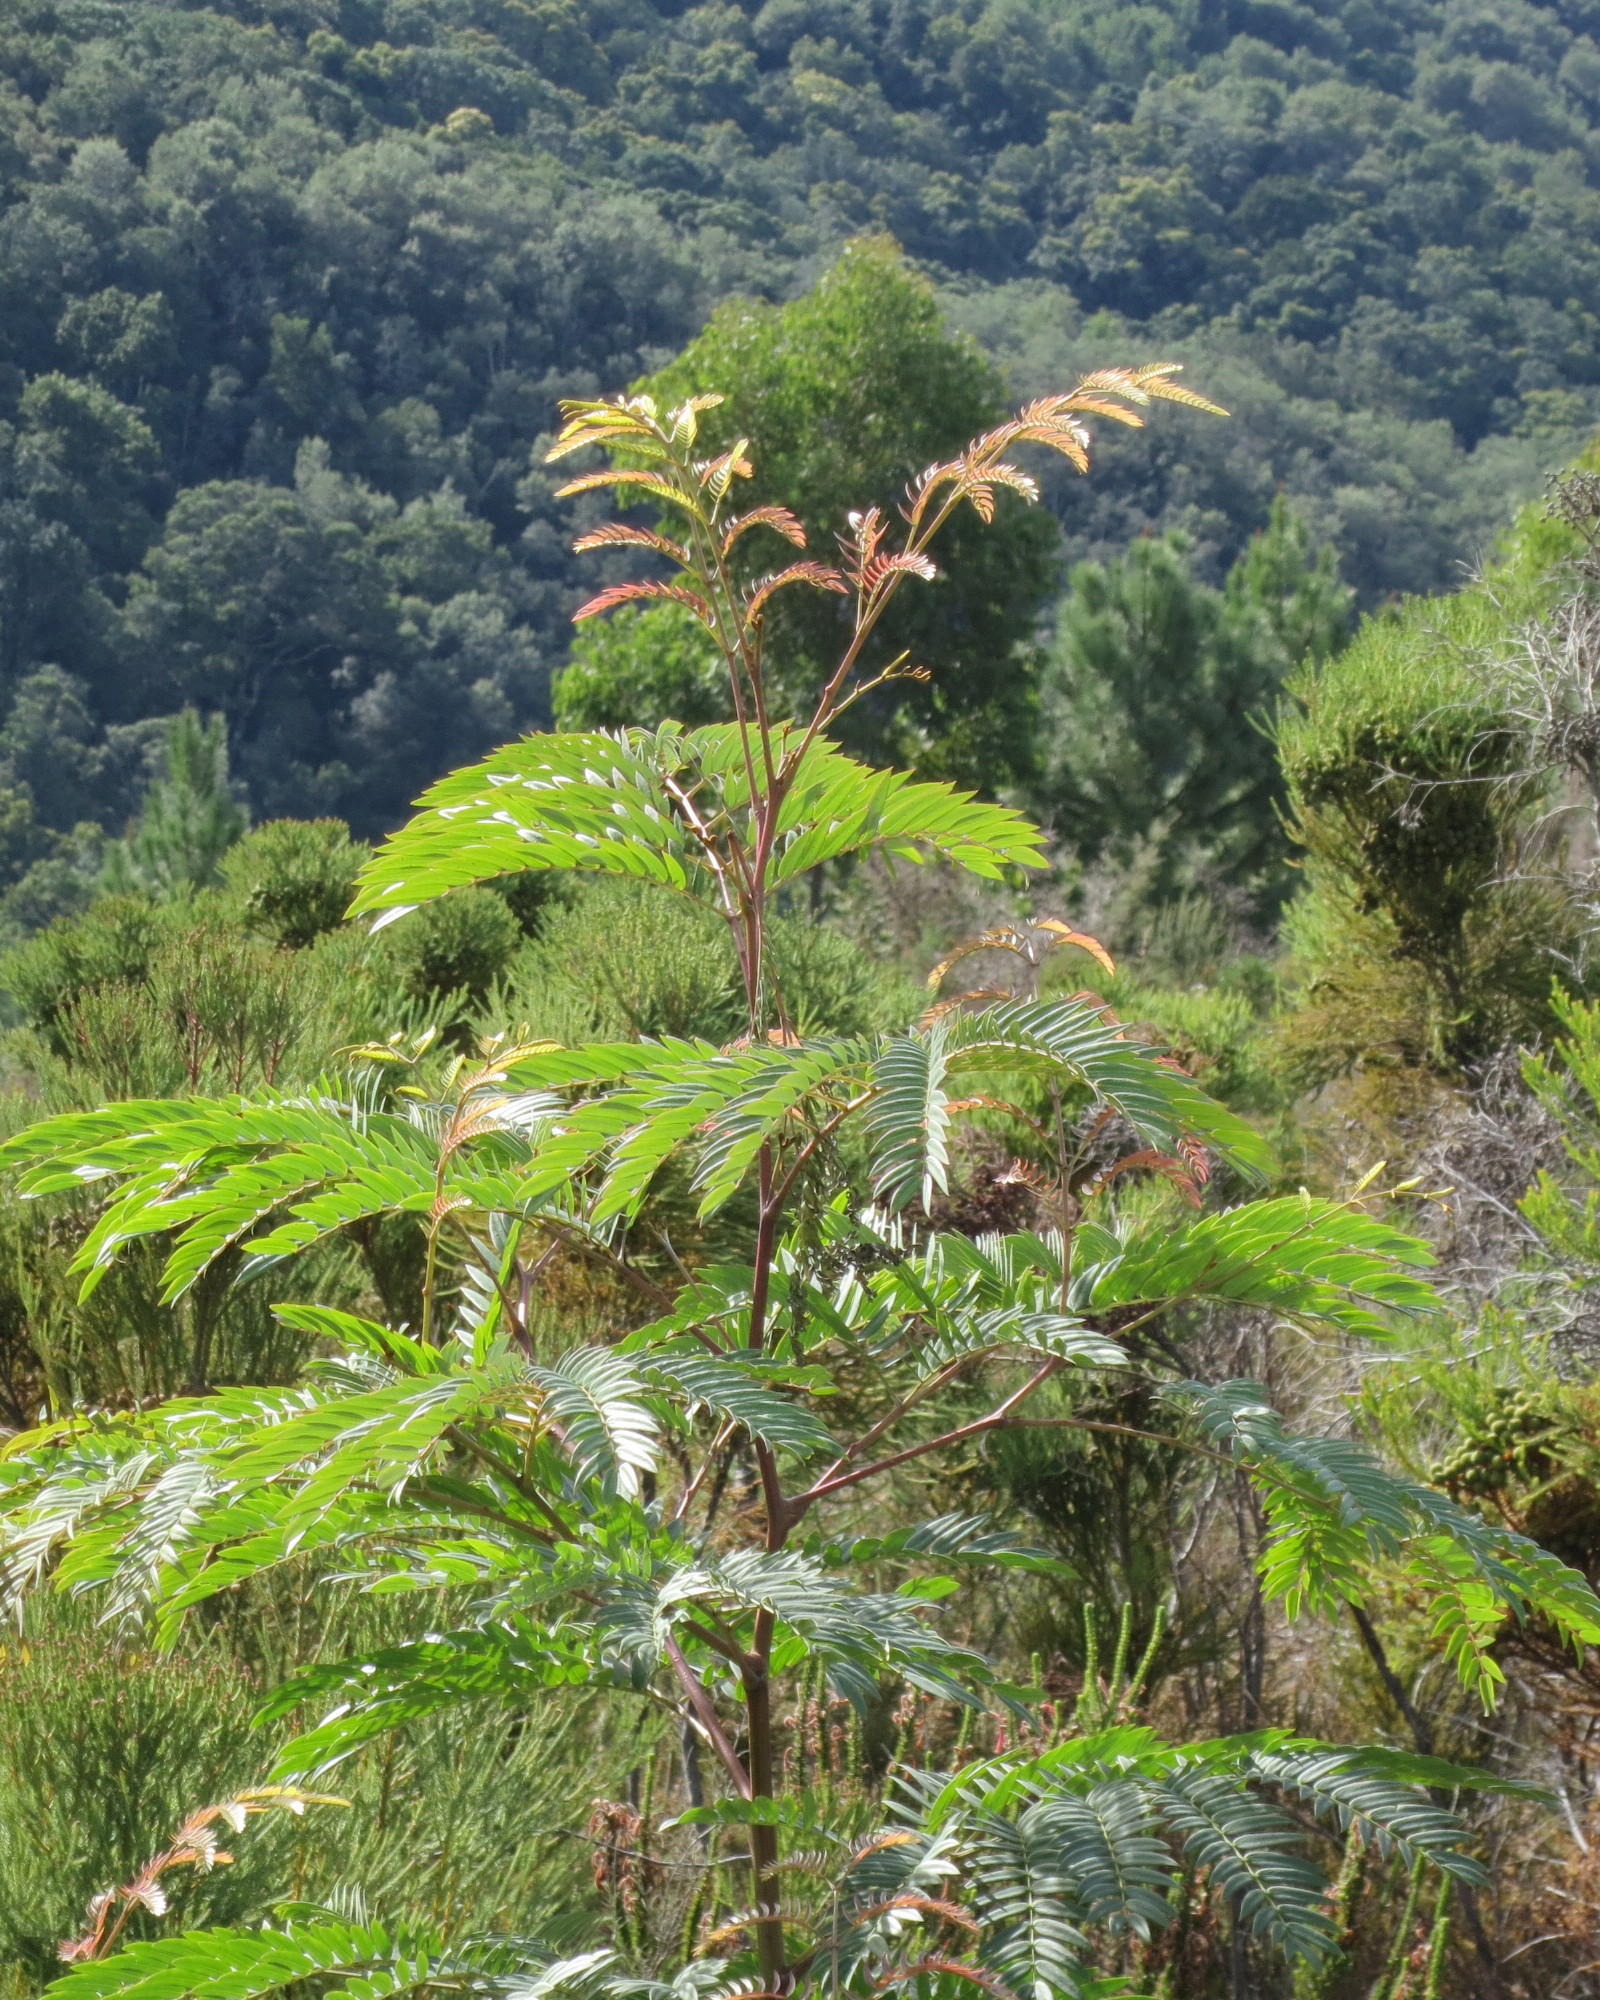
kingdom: Plantae
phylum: Tracheophyta
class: Magnoliopsida
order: Fabales
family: Fabaceae
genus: Acacia
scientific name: Acacia elata
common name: Cedar wattle
